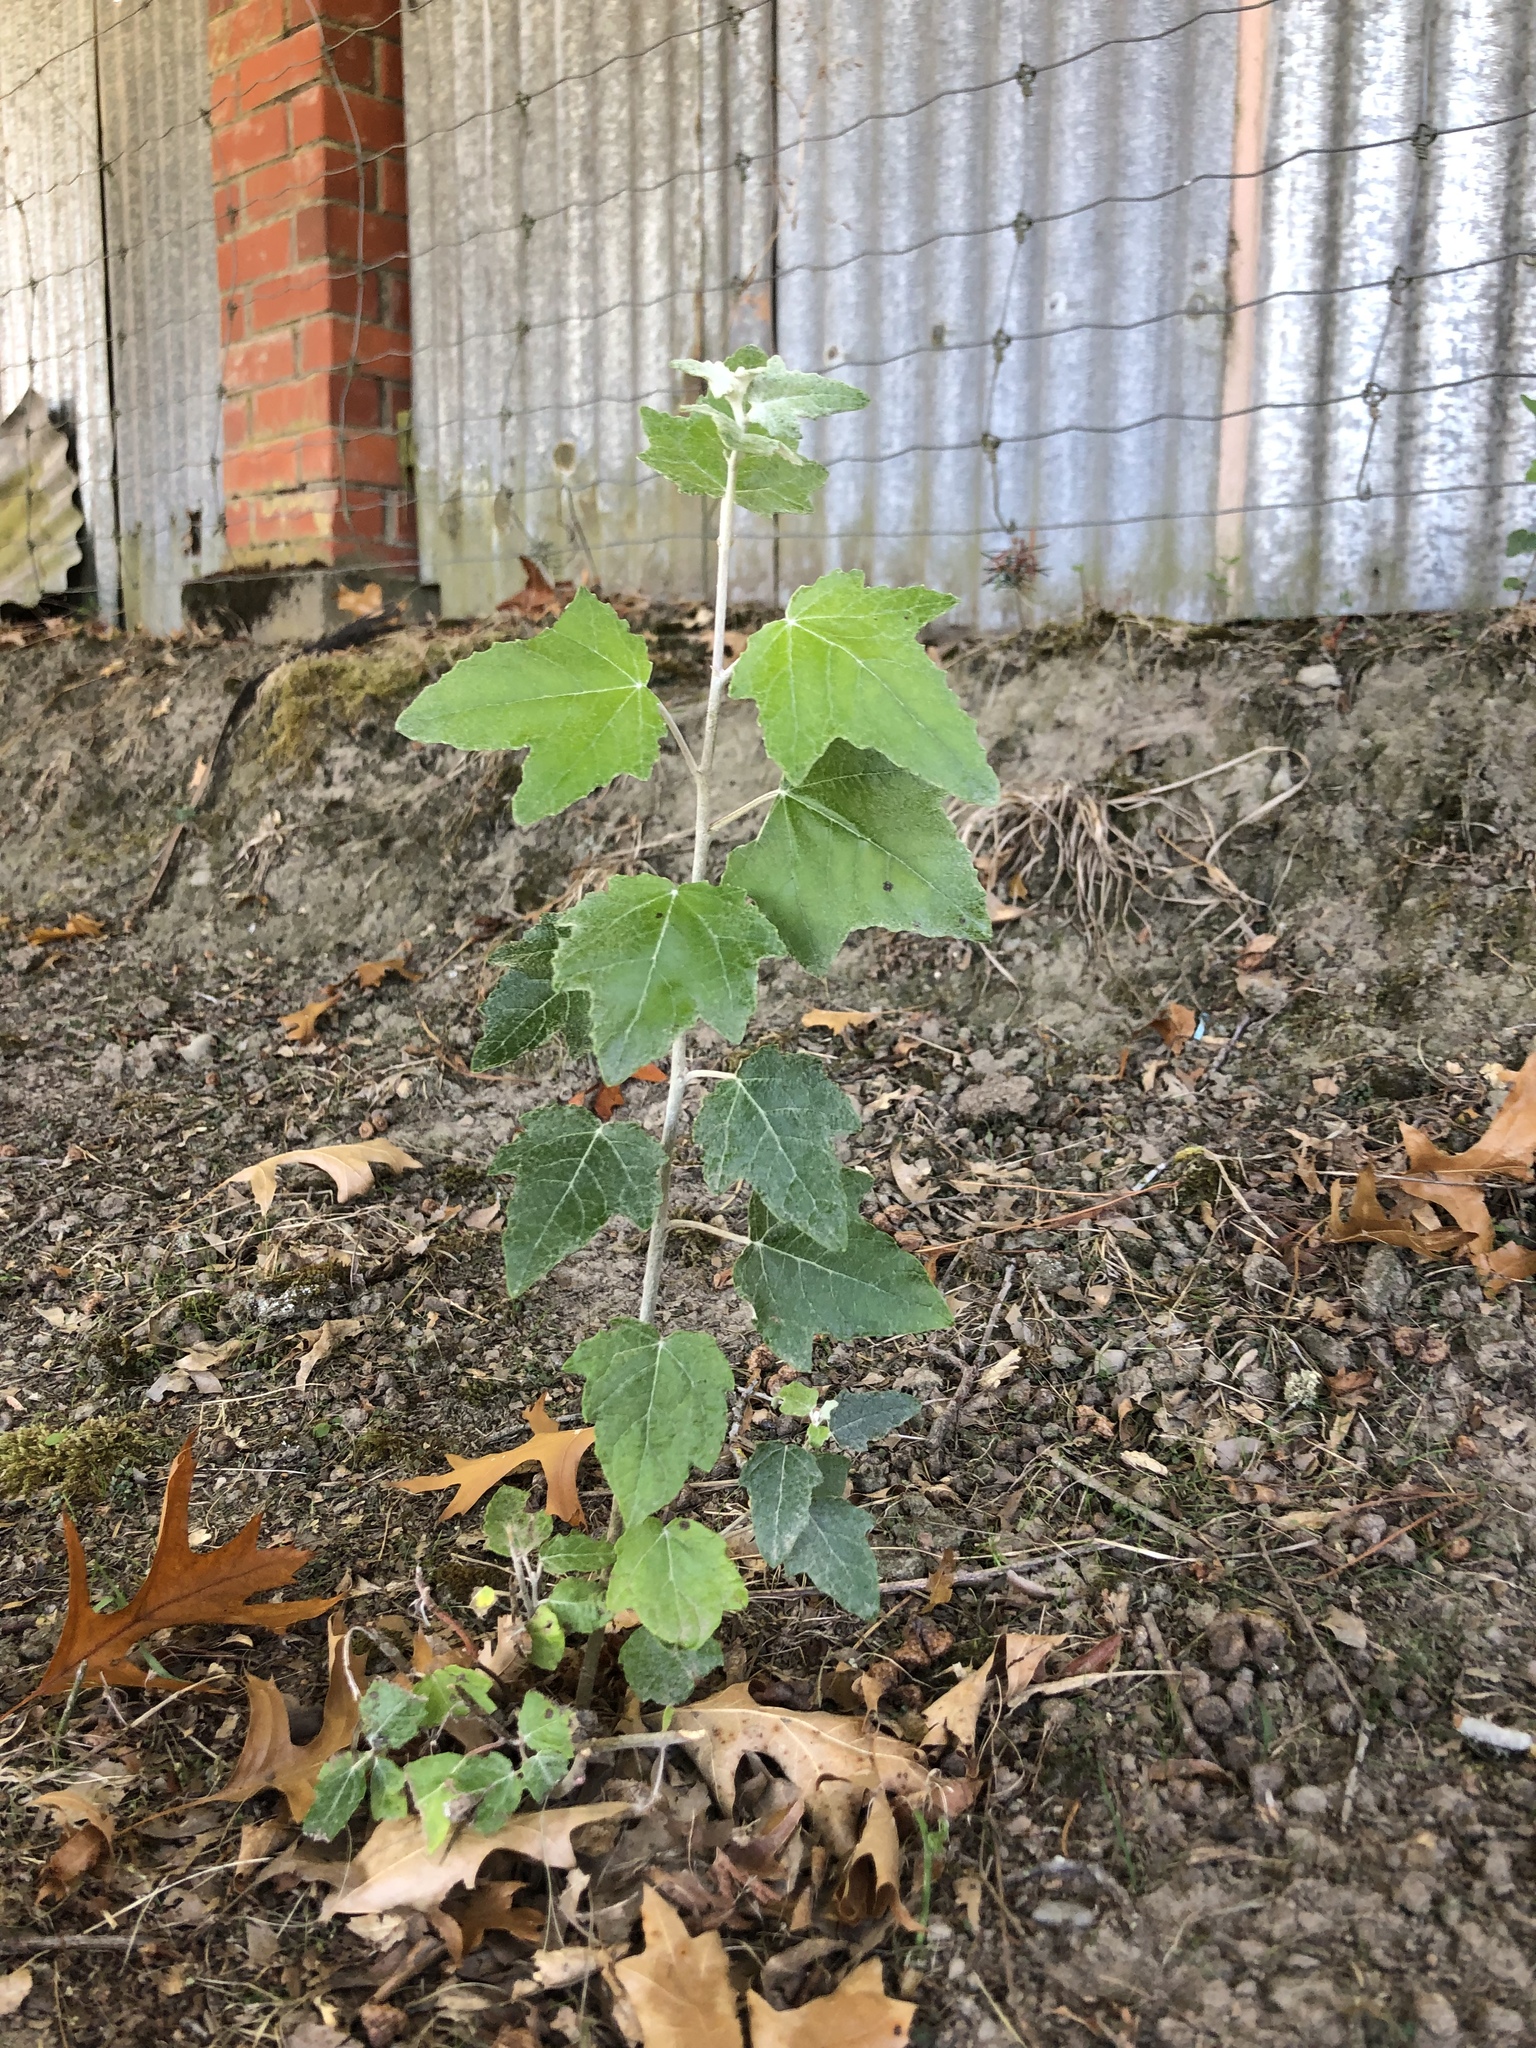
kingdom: Plantae
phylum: Tracheophyta
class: Magnoliopsida
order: Malpighiales
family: Salicaceae
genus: Populus
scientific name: Populus alba
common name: White poplar
